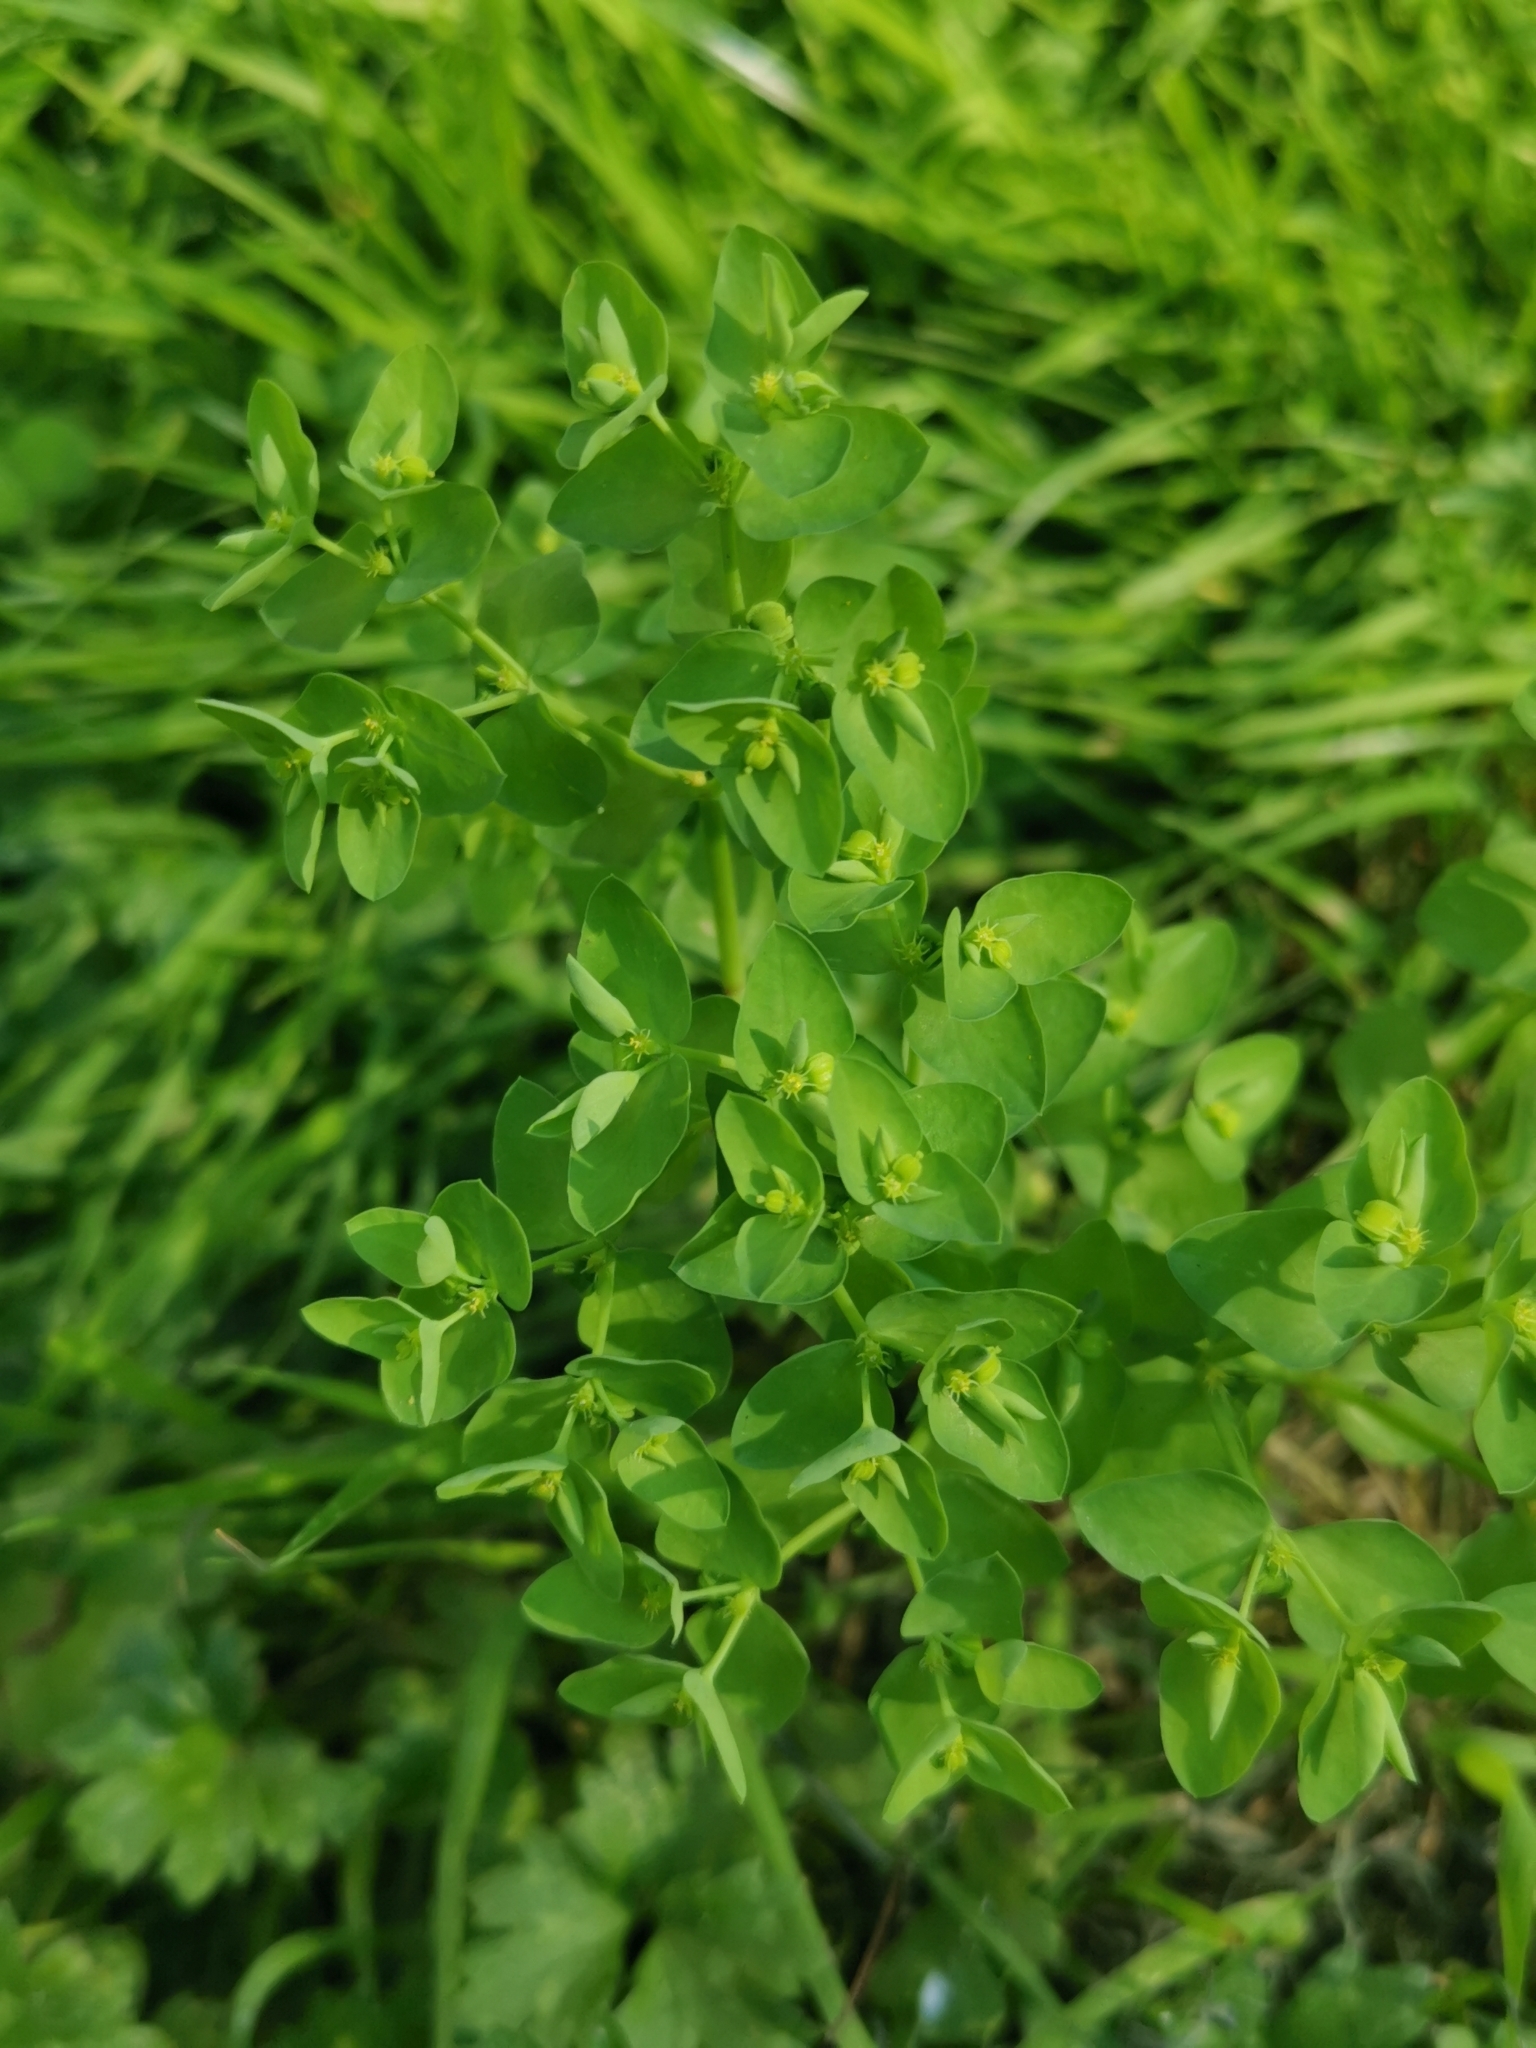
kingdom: Plantae
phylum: Tracheophyta
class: Magnoliopsida
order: Malpighiales
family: Euphorbiaceae
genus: Euphorbia
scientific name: Euphorbia peplus
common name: Petty spurge
